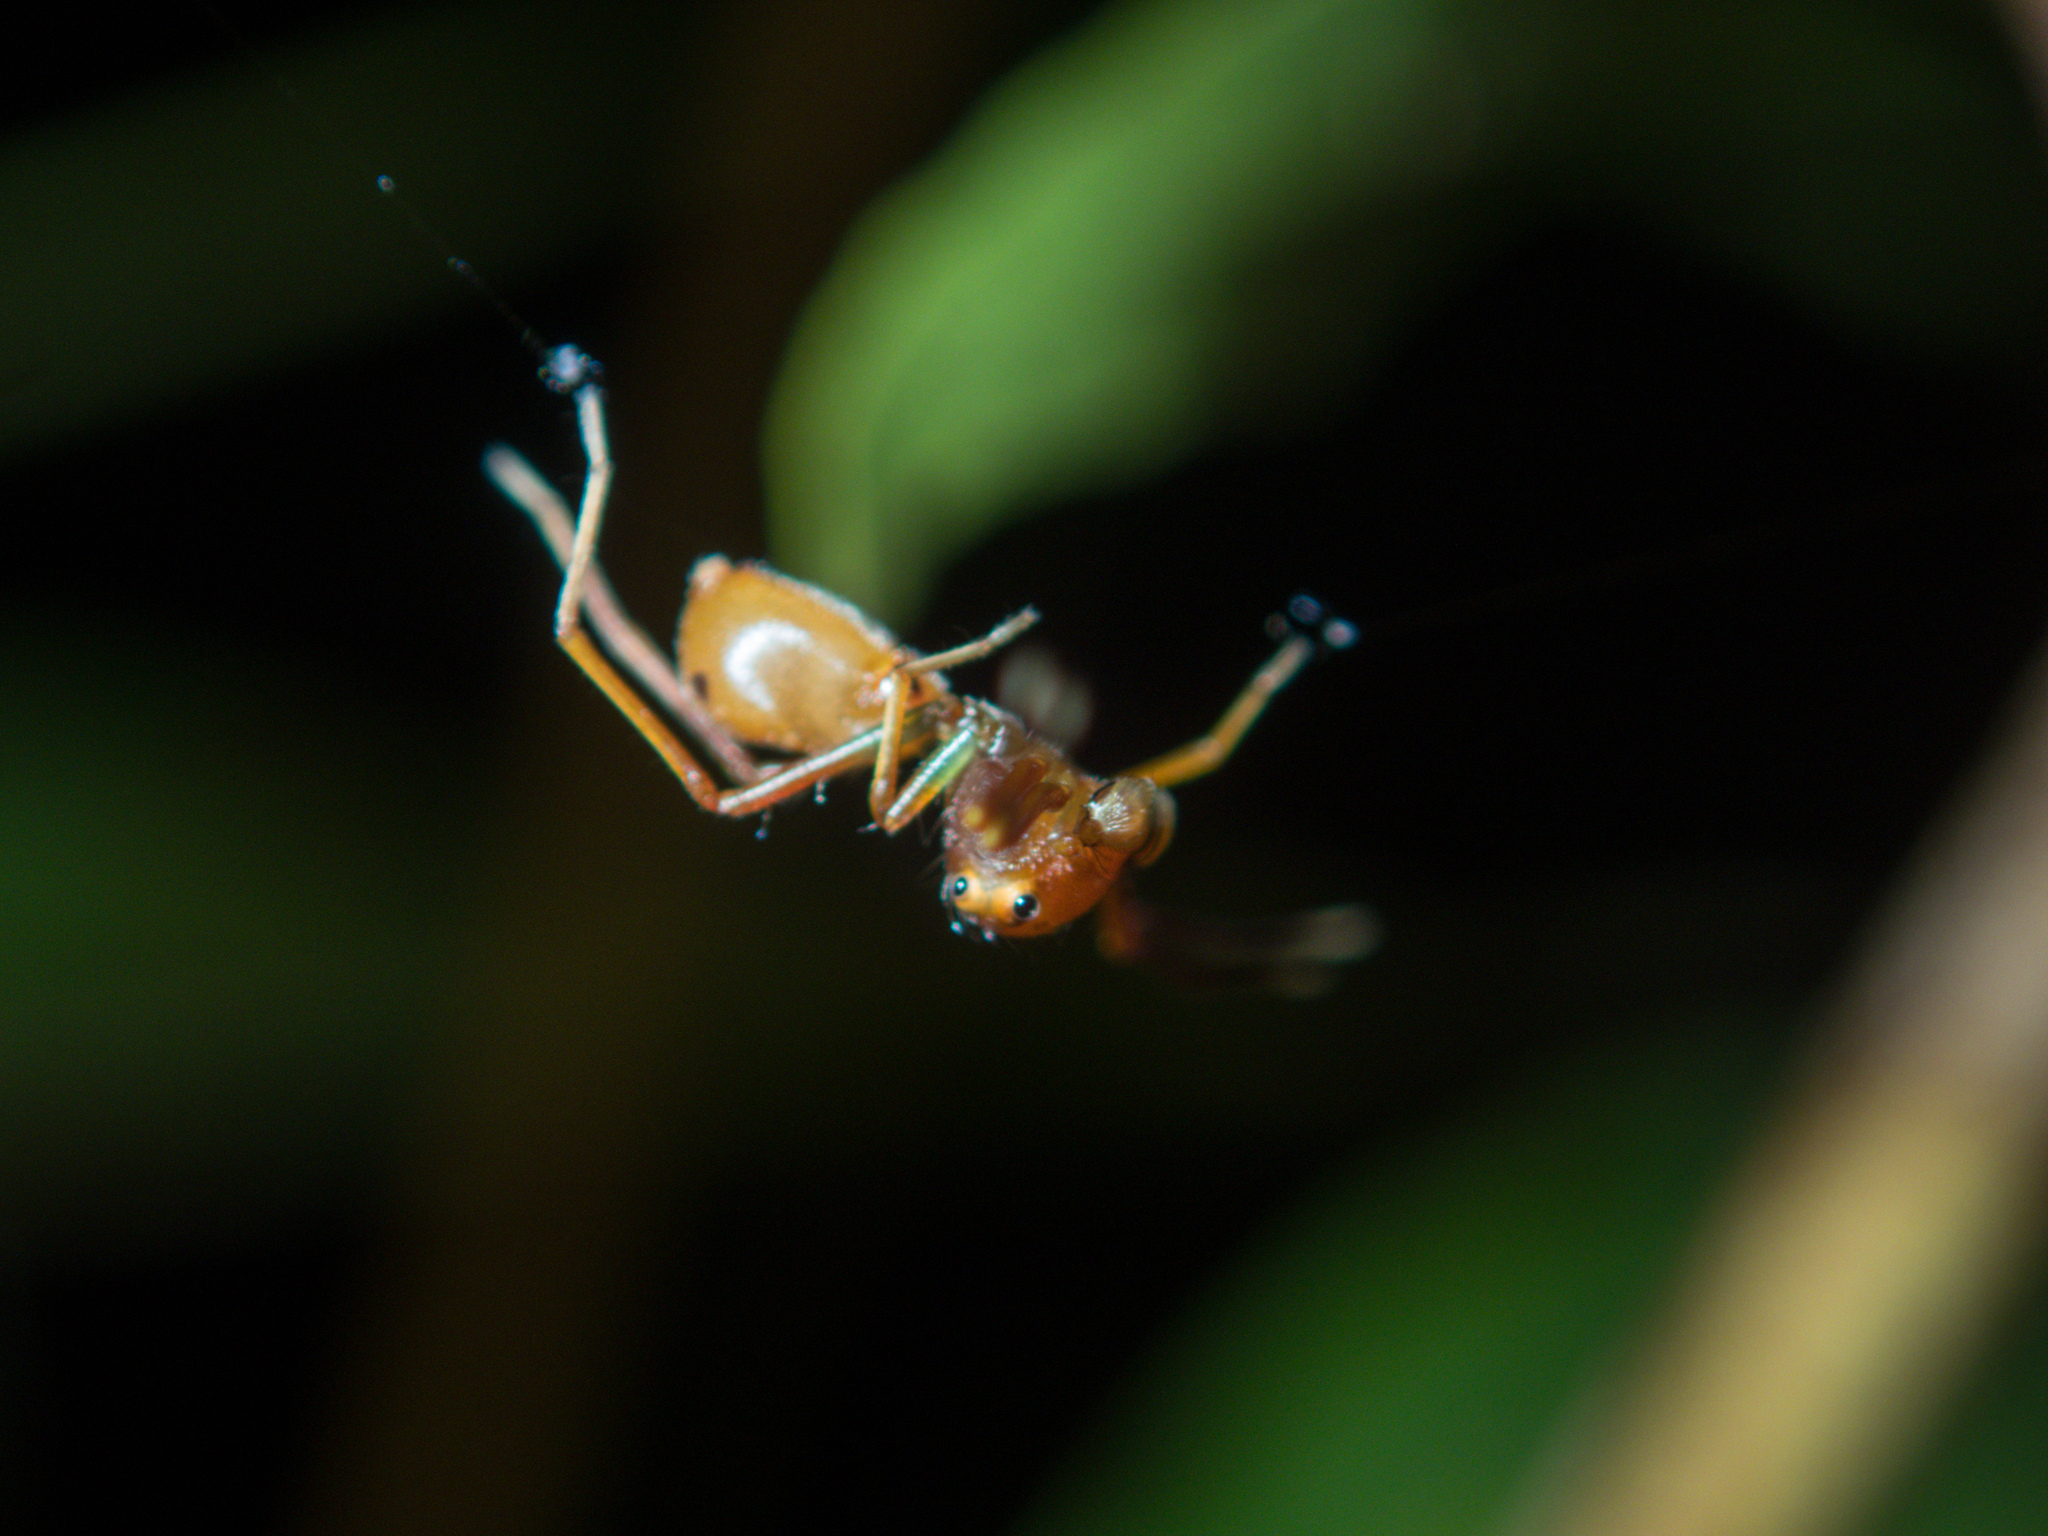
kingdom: Animalia
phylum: Arthropoda
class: Arachnida
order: Araneae
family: Thomisidae
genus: Amyciaea
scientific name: Amyciaea forticeps
